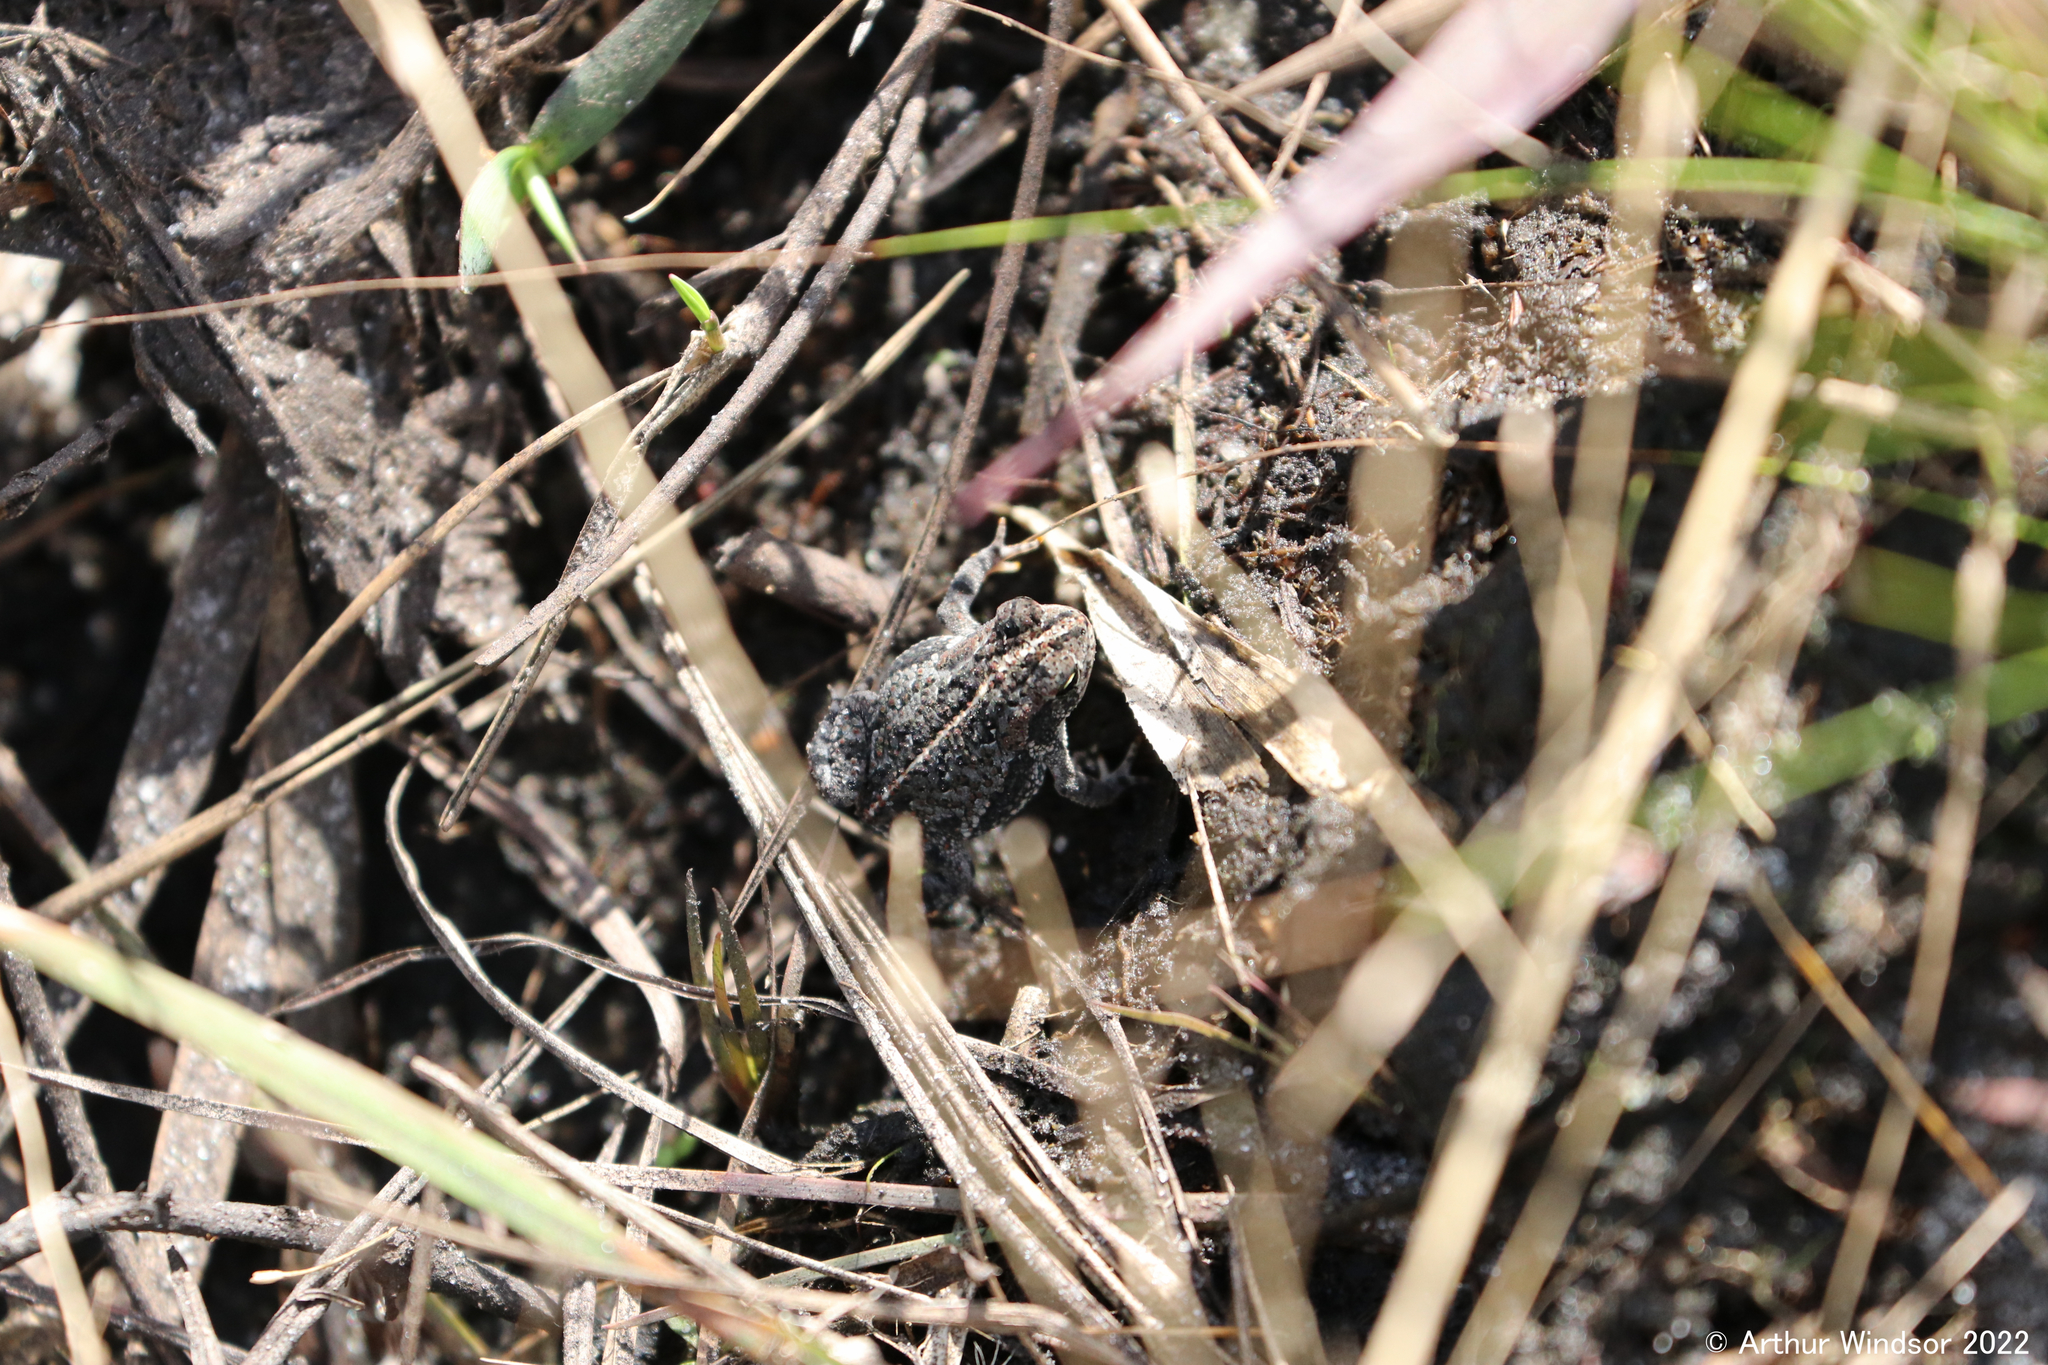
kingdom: Animalia
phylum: Chordata
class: Amphibia
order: Anura
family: Bufonidae
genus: Anaxyrus
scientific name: Anaxyrus quercicus
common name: Oak toad
